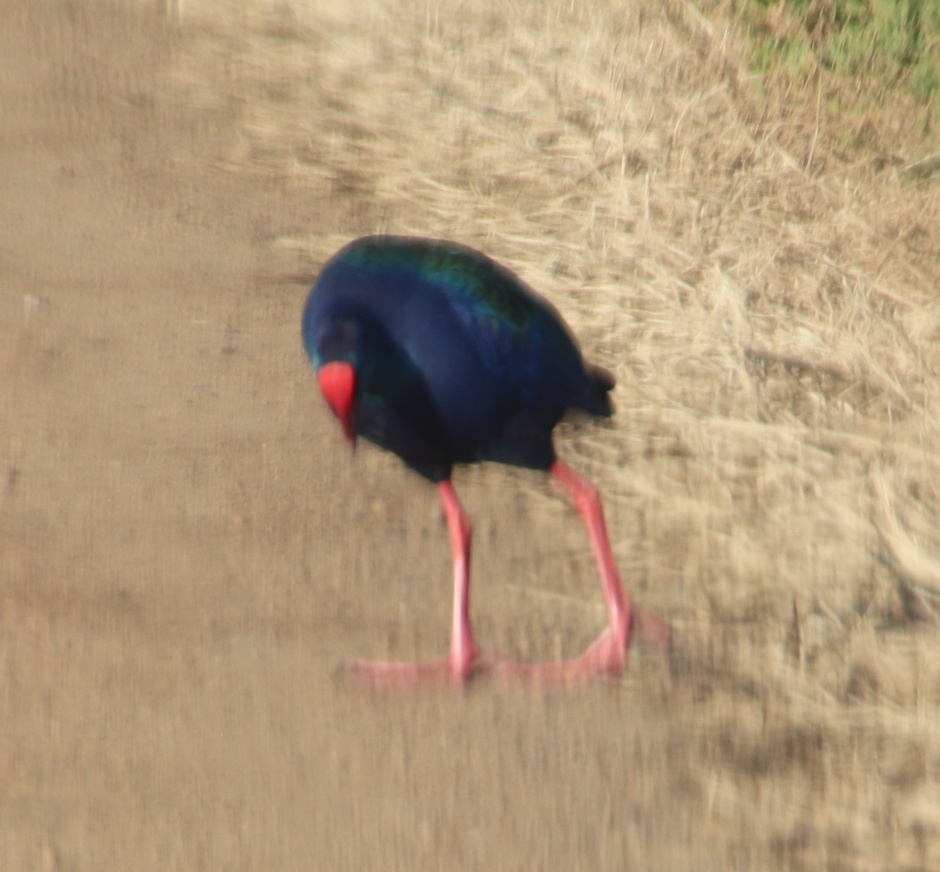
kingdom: Animalia
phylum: Chordata
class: Aves
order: Gruiformes
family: Rallidae
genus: Porphyrio
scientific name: Porphyrio porphyrio
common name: Purple swamphen
